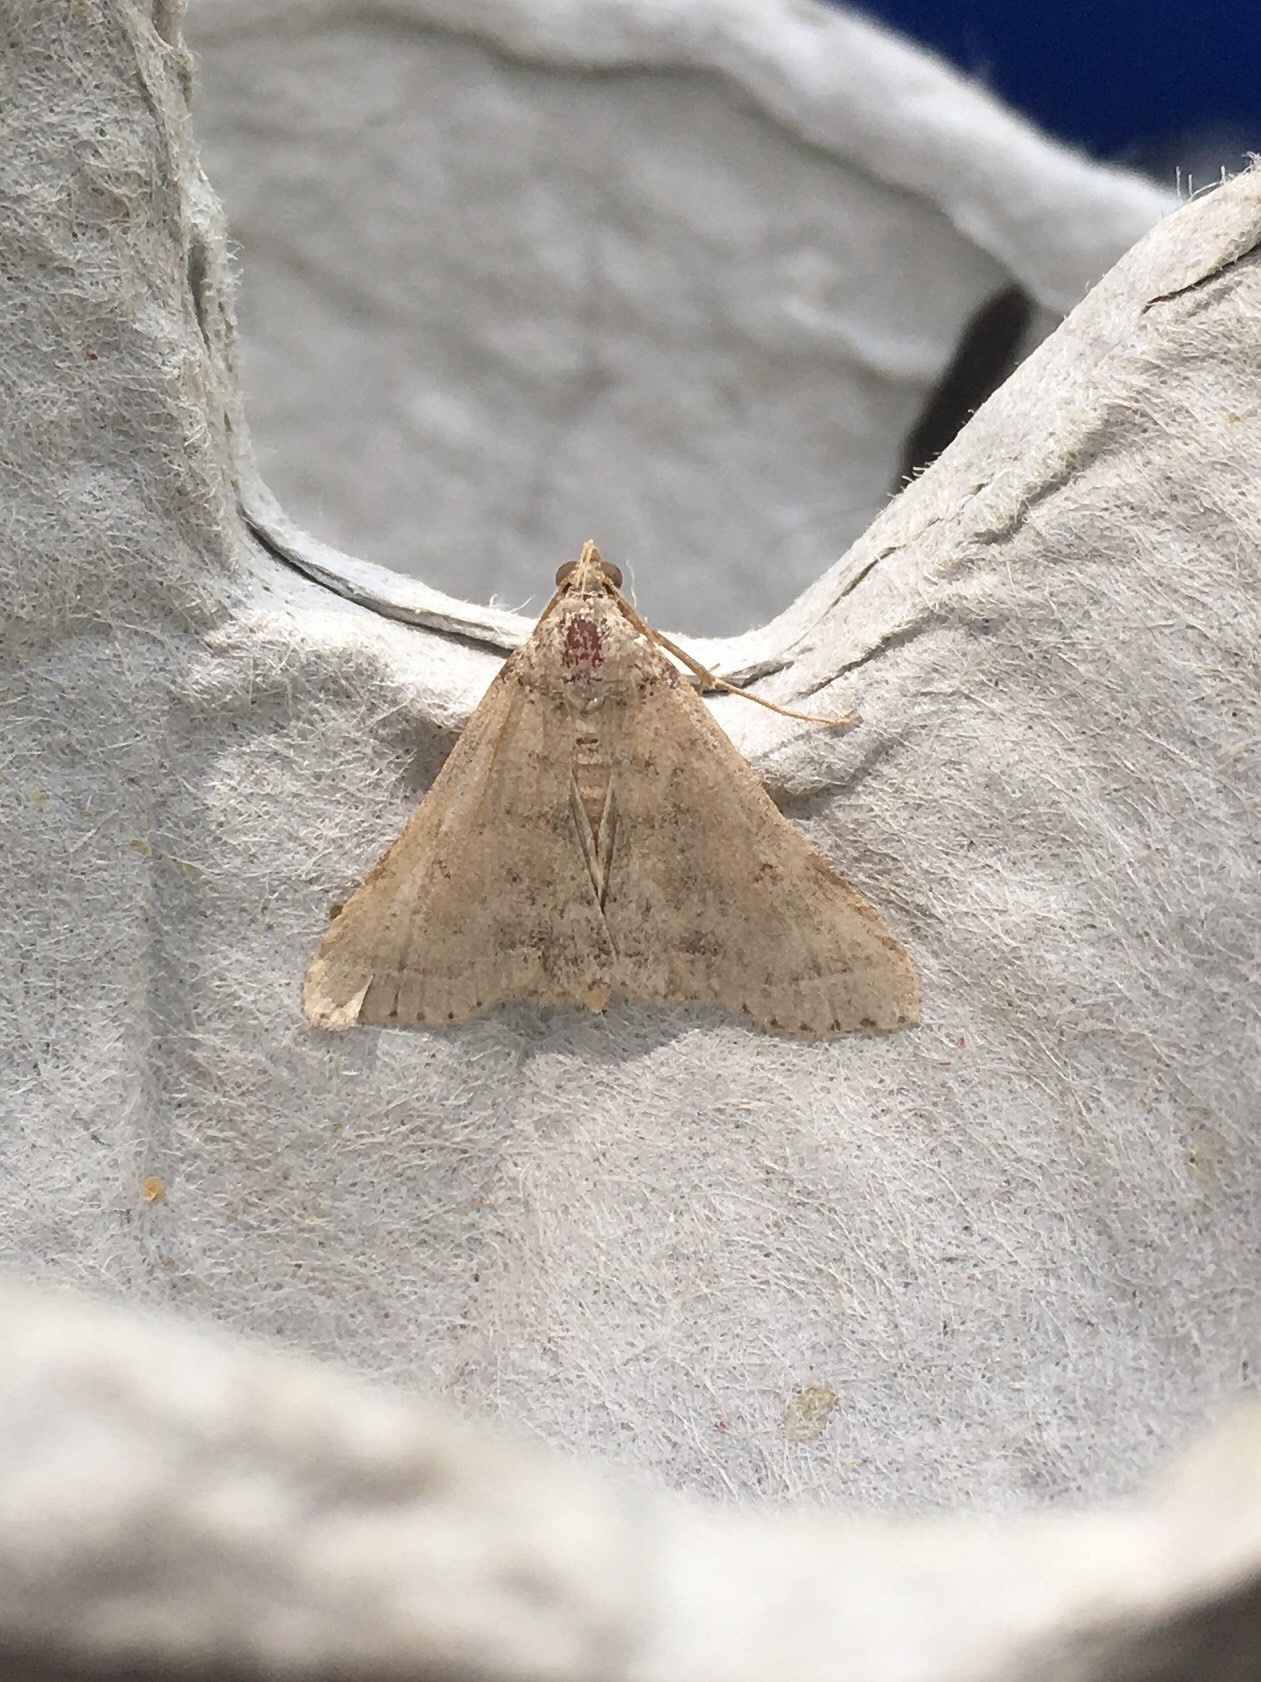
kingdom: Animalia
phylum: Arthropoda
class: Insecta
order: Lepidoptera
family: Erebidae
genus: Bleptina
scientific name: Bleptina caradrinalis
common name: Bent-winged owlet
